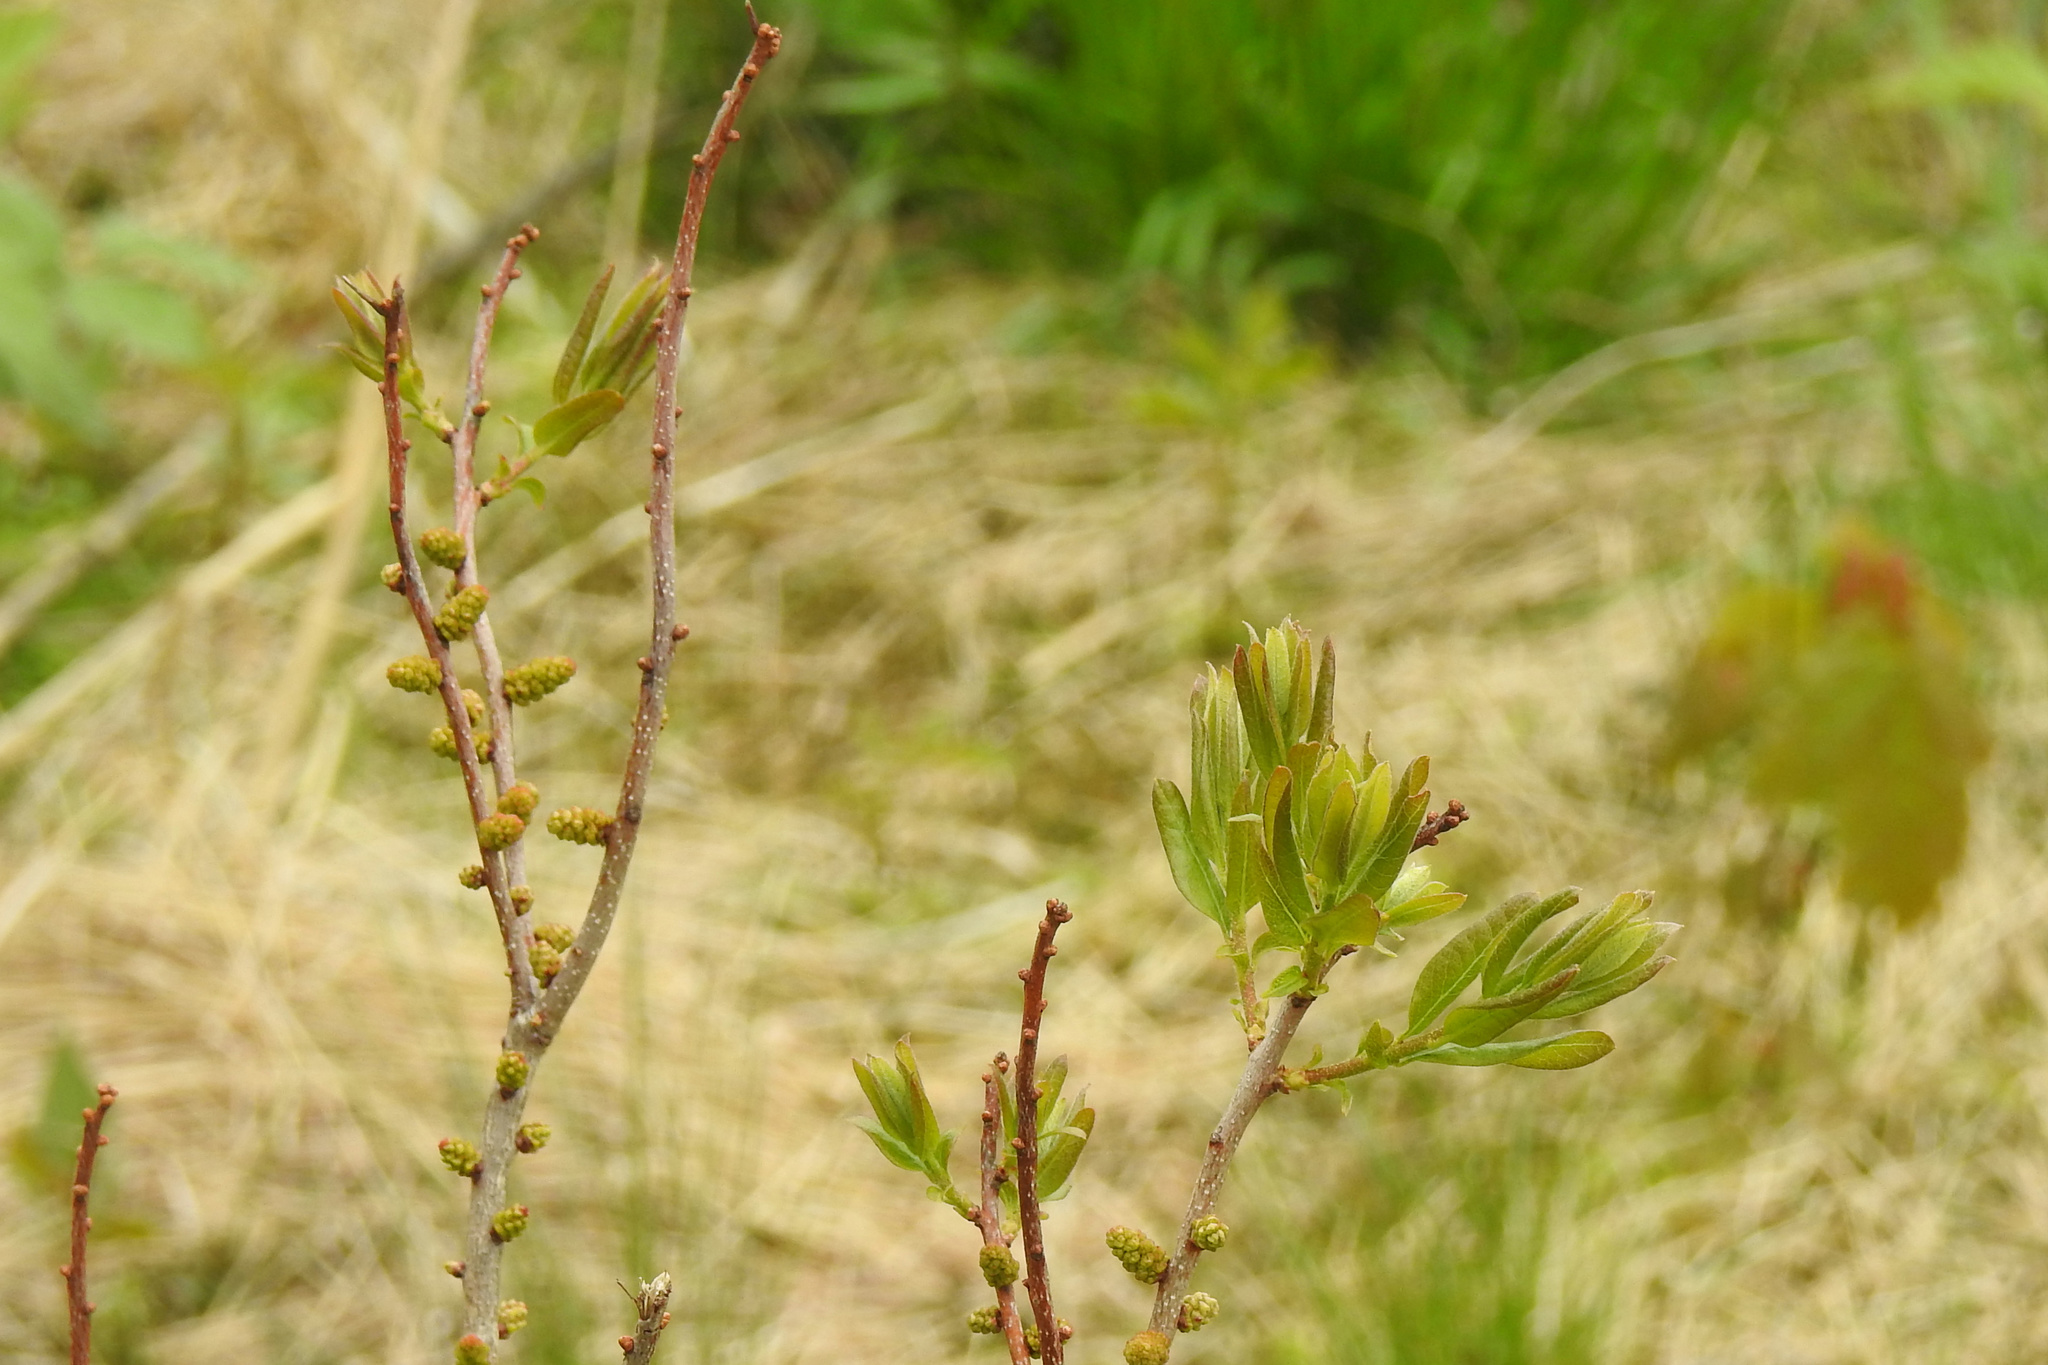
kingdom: Plantae
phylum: Tracheophyta
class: Magnoliopsida
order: Fagales
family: Myricaceae
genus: Morella
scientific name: Morella pensylvanica
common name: Northern bayberry
